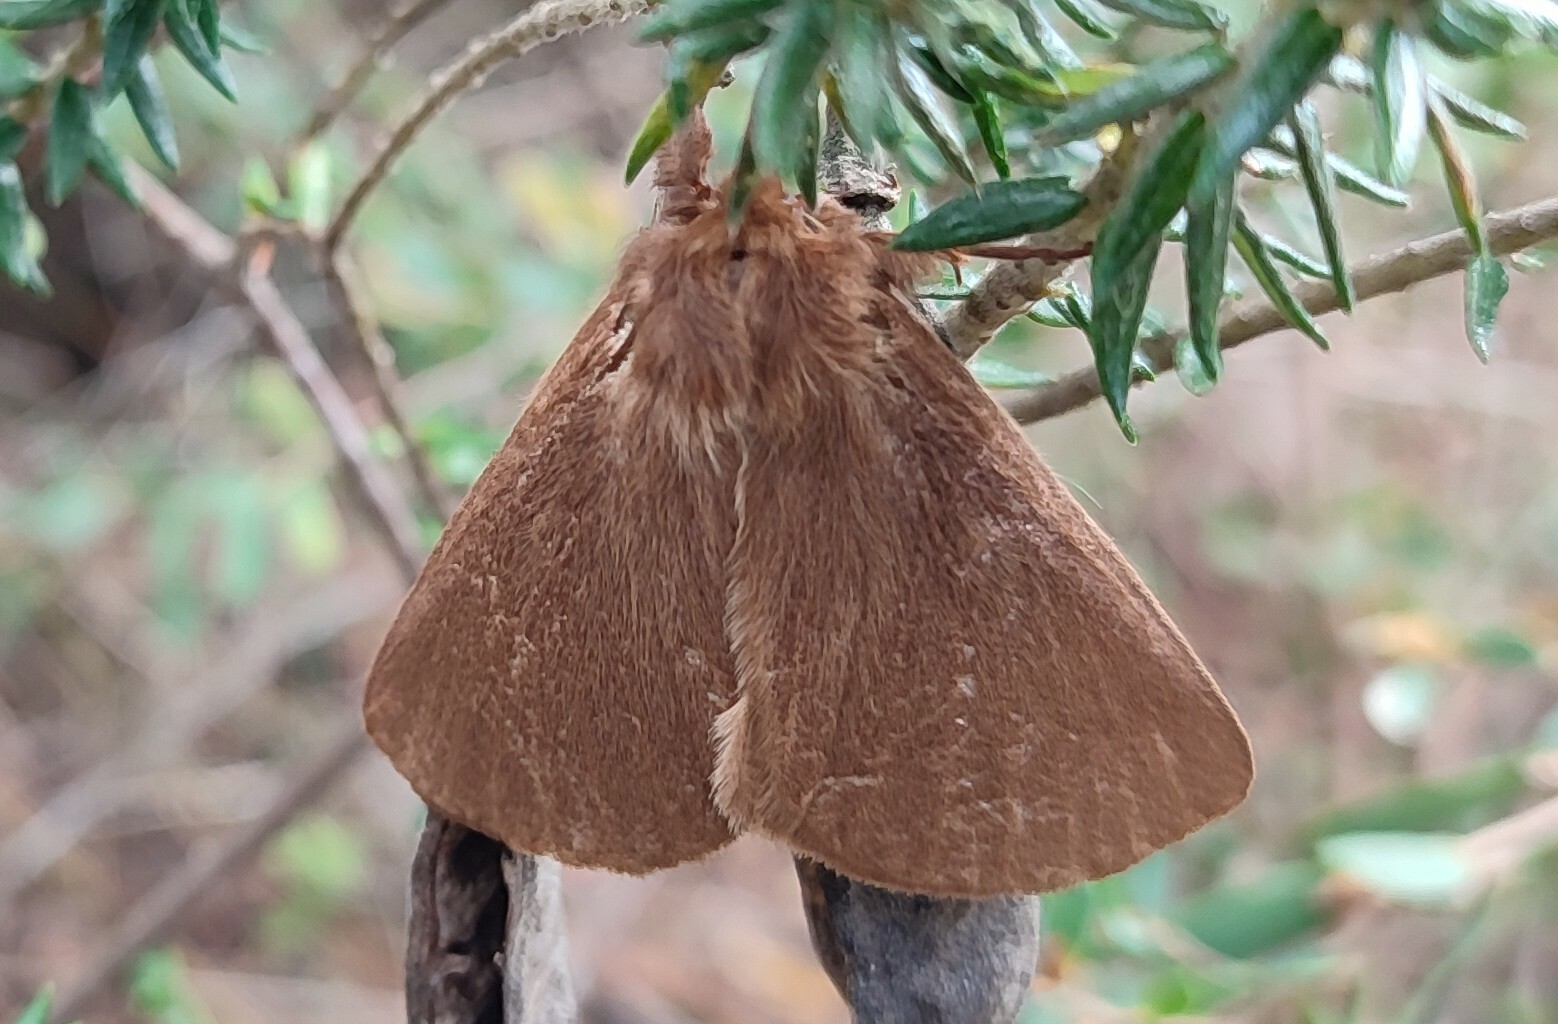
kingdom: Animalia
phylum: Arthropoda
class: Insecta
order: Lepidoptera
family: Eupterotidae
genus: Phyllalia
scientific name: Phyllalia patens
